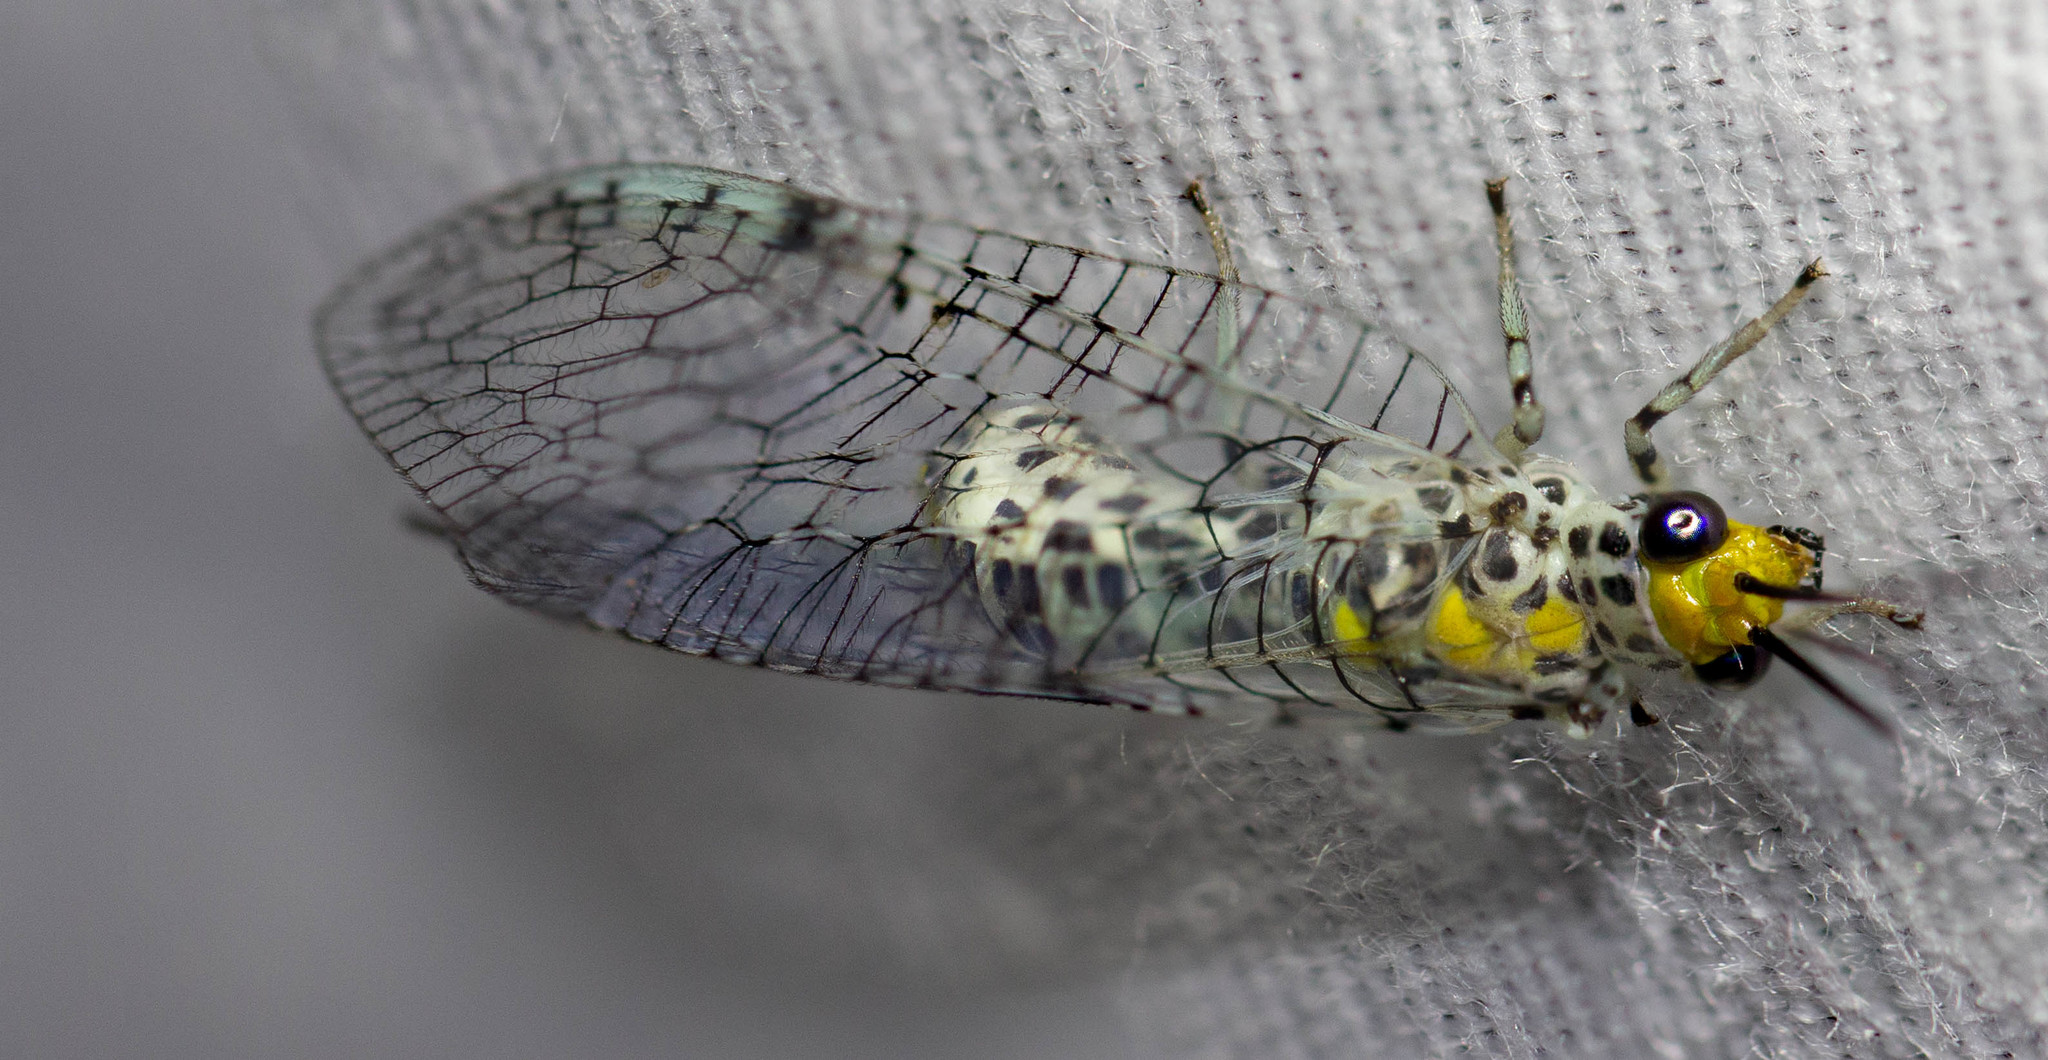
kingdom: Animalia
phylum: Arthropoda
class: Insecta
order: Neuroptera
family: Chrysopidae
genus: Abachrysa
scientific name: Abachrysa eureka
